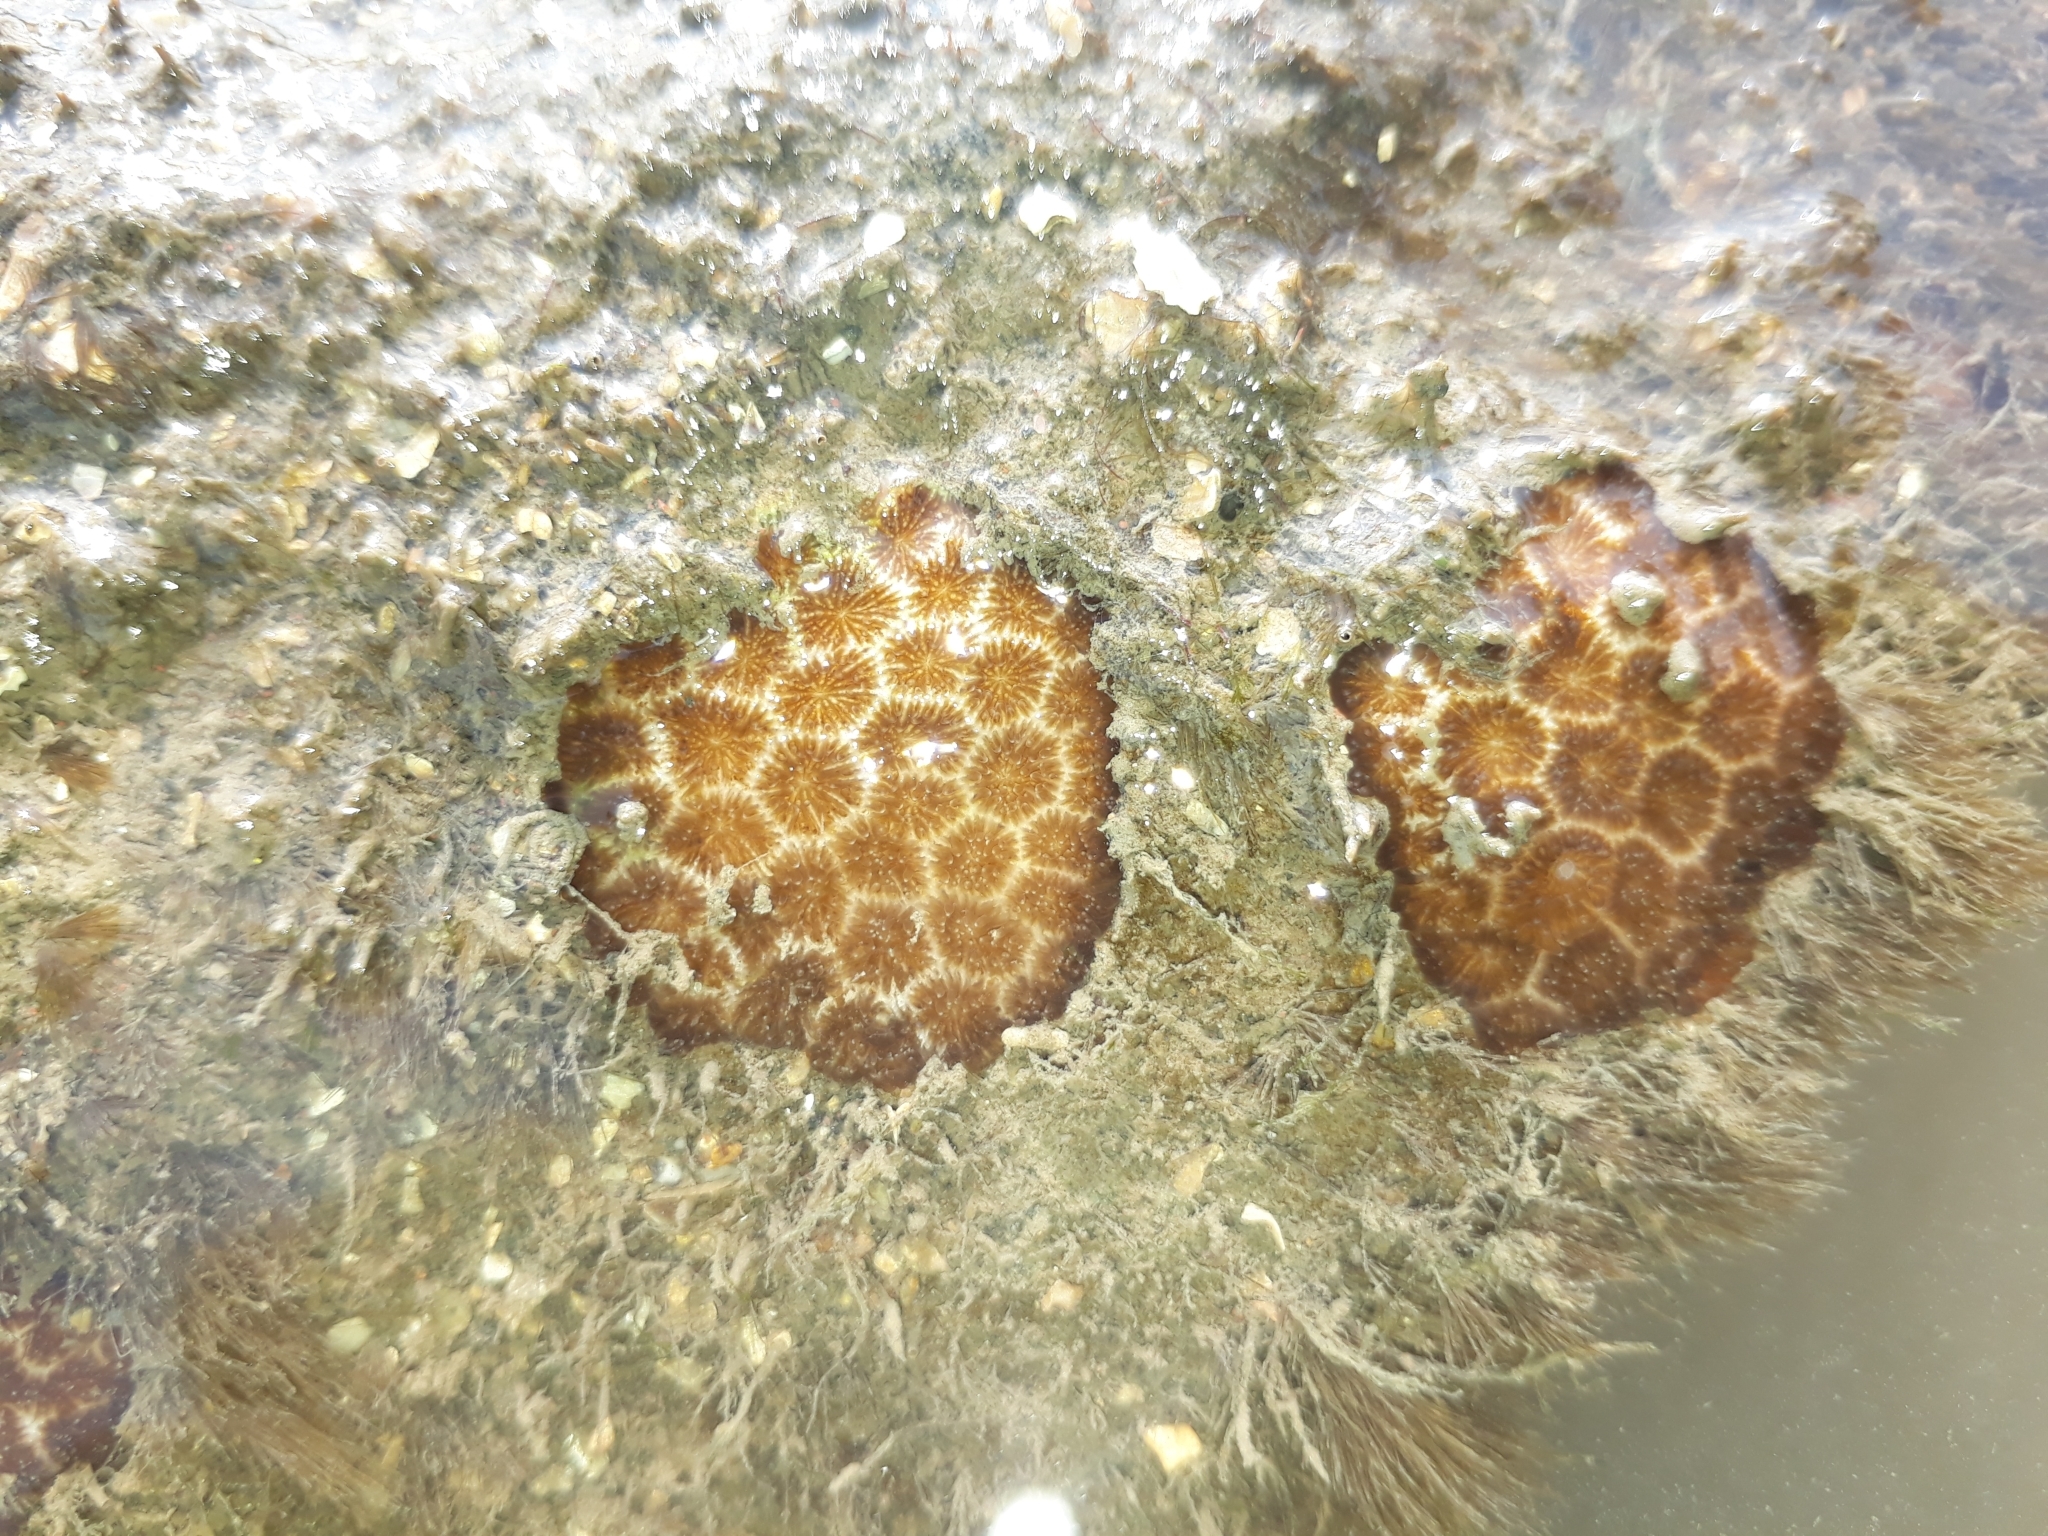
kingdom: Animalia
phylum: Cnidaria
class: Anthozoa
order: Scleractinia
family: Rhizangiidae
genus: Pseudosiderastrea
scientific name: Pseudosiderastrea tayamai
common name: False pillow coral
